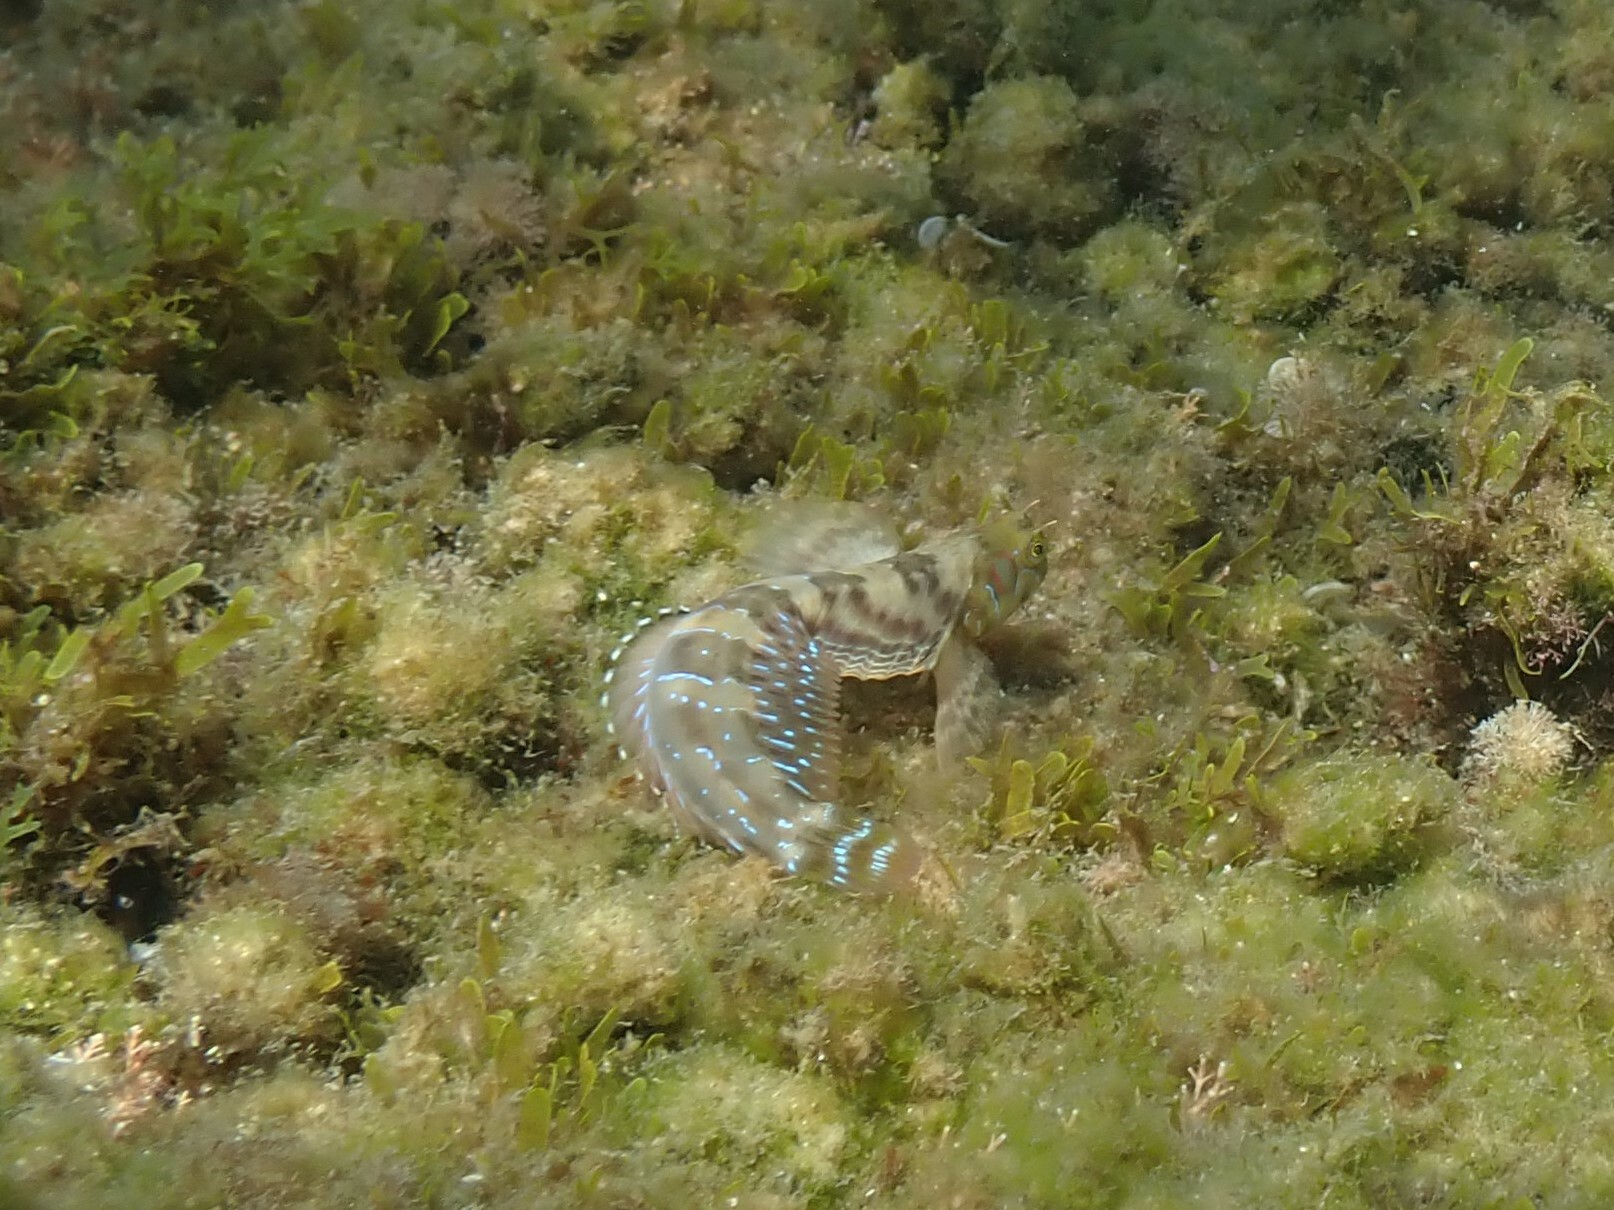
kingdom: Animalia
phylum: Chordata
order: Perciformes
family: Blenniidae
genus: Aidablennius
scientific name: Aidablennius sphynx
